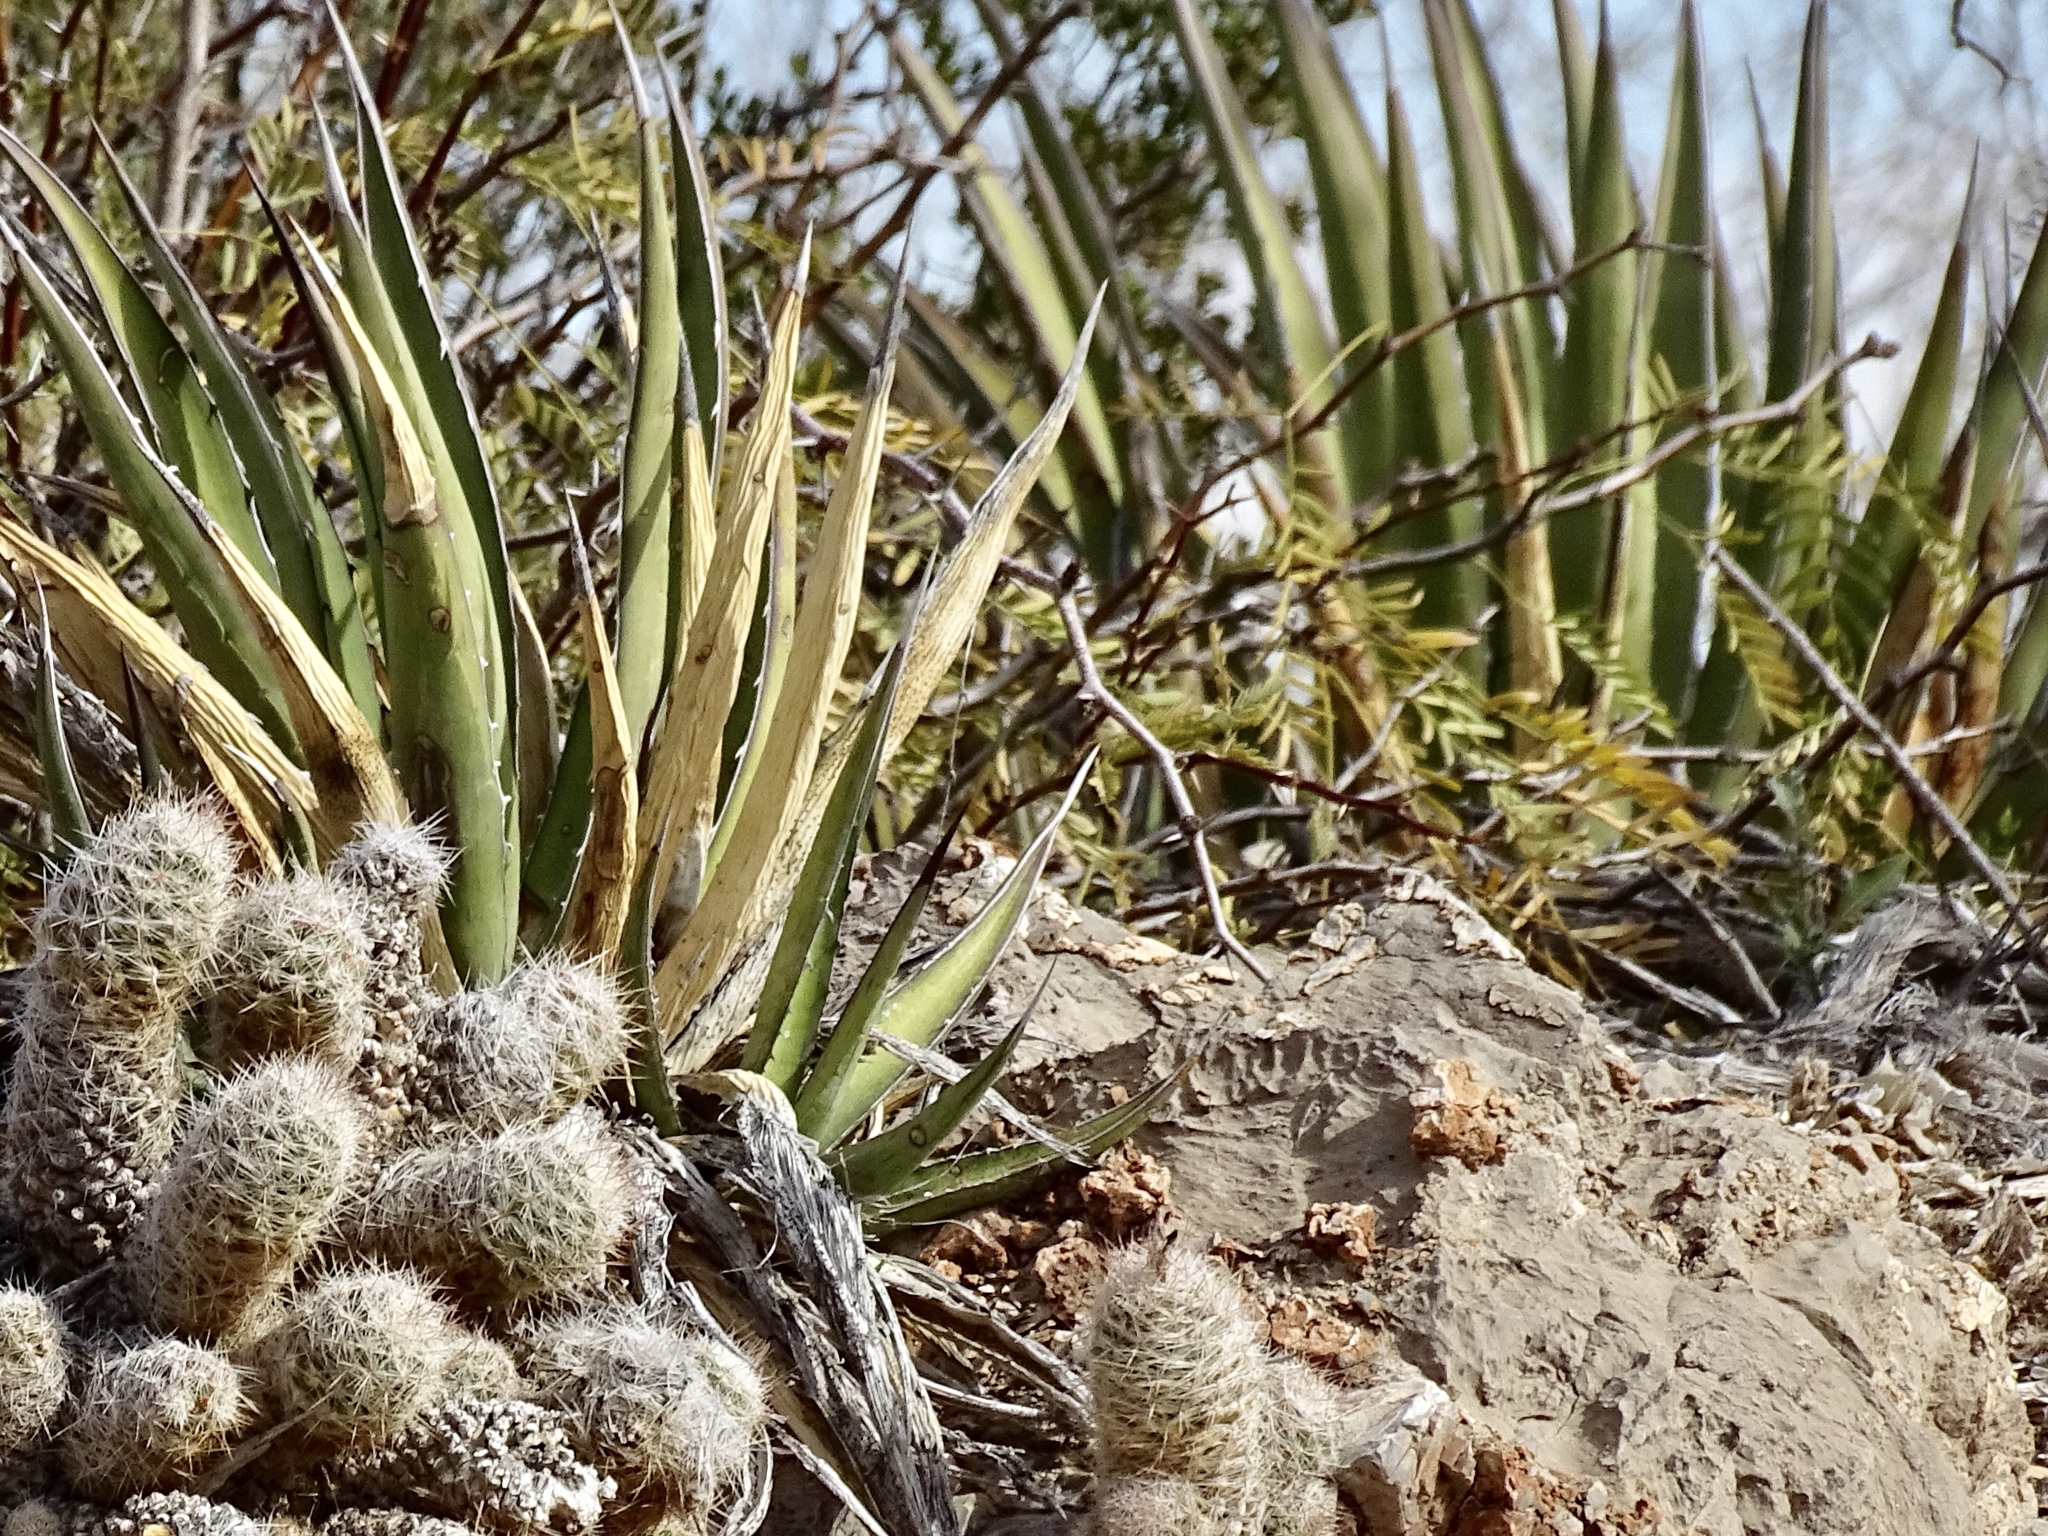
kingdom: Plantae
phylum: Tracheophyta
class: Liliopsida
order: Asparagales
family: Asparagaceae
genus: Agave
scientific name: Agave lechuguilla
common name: Lecheguilla agave
